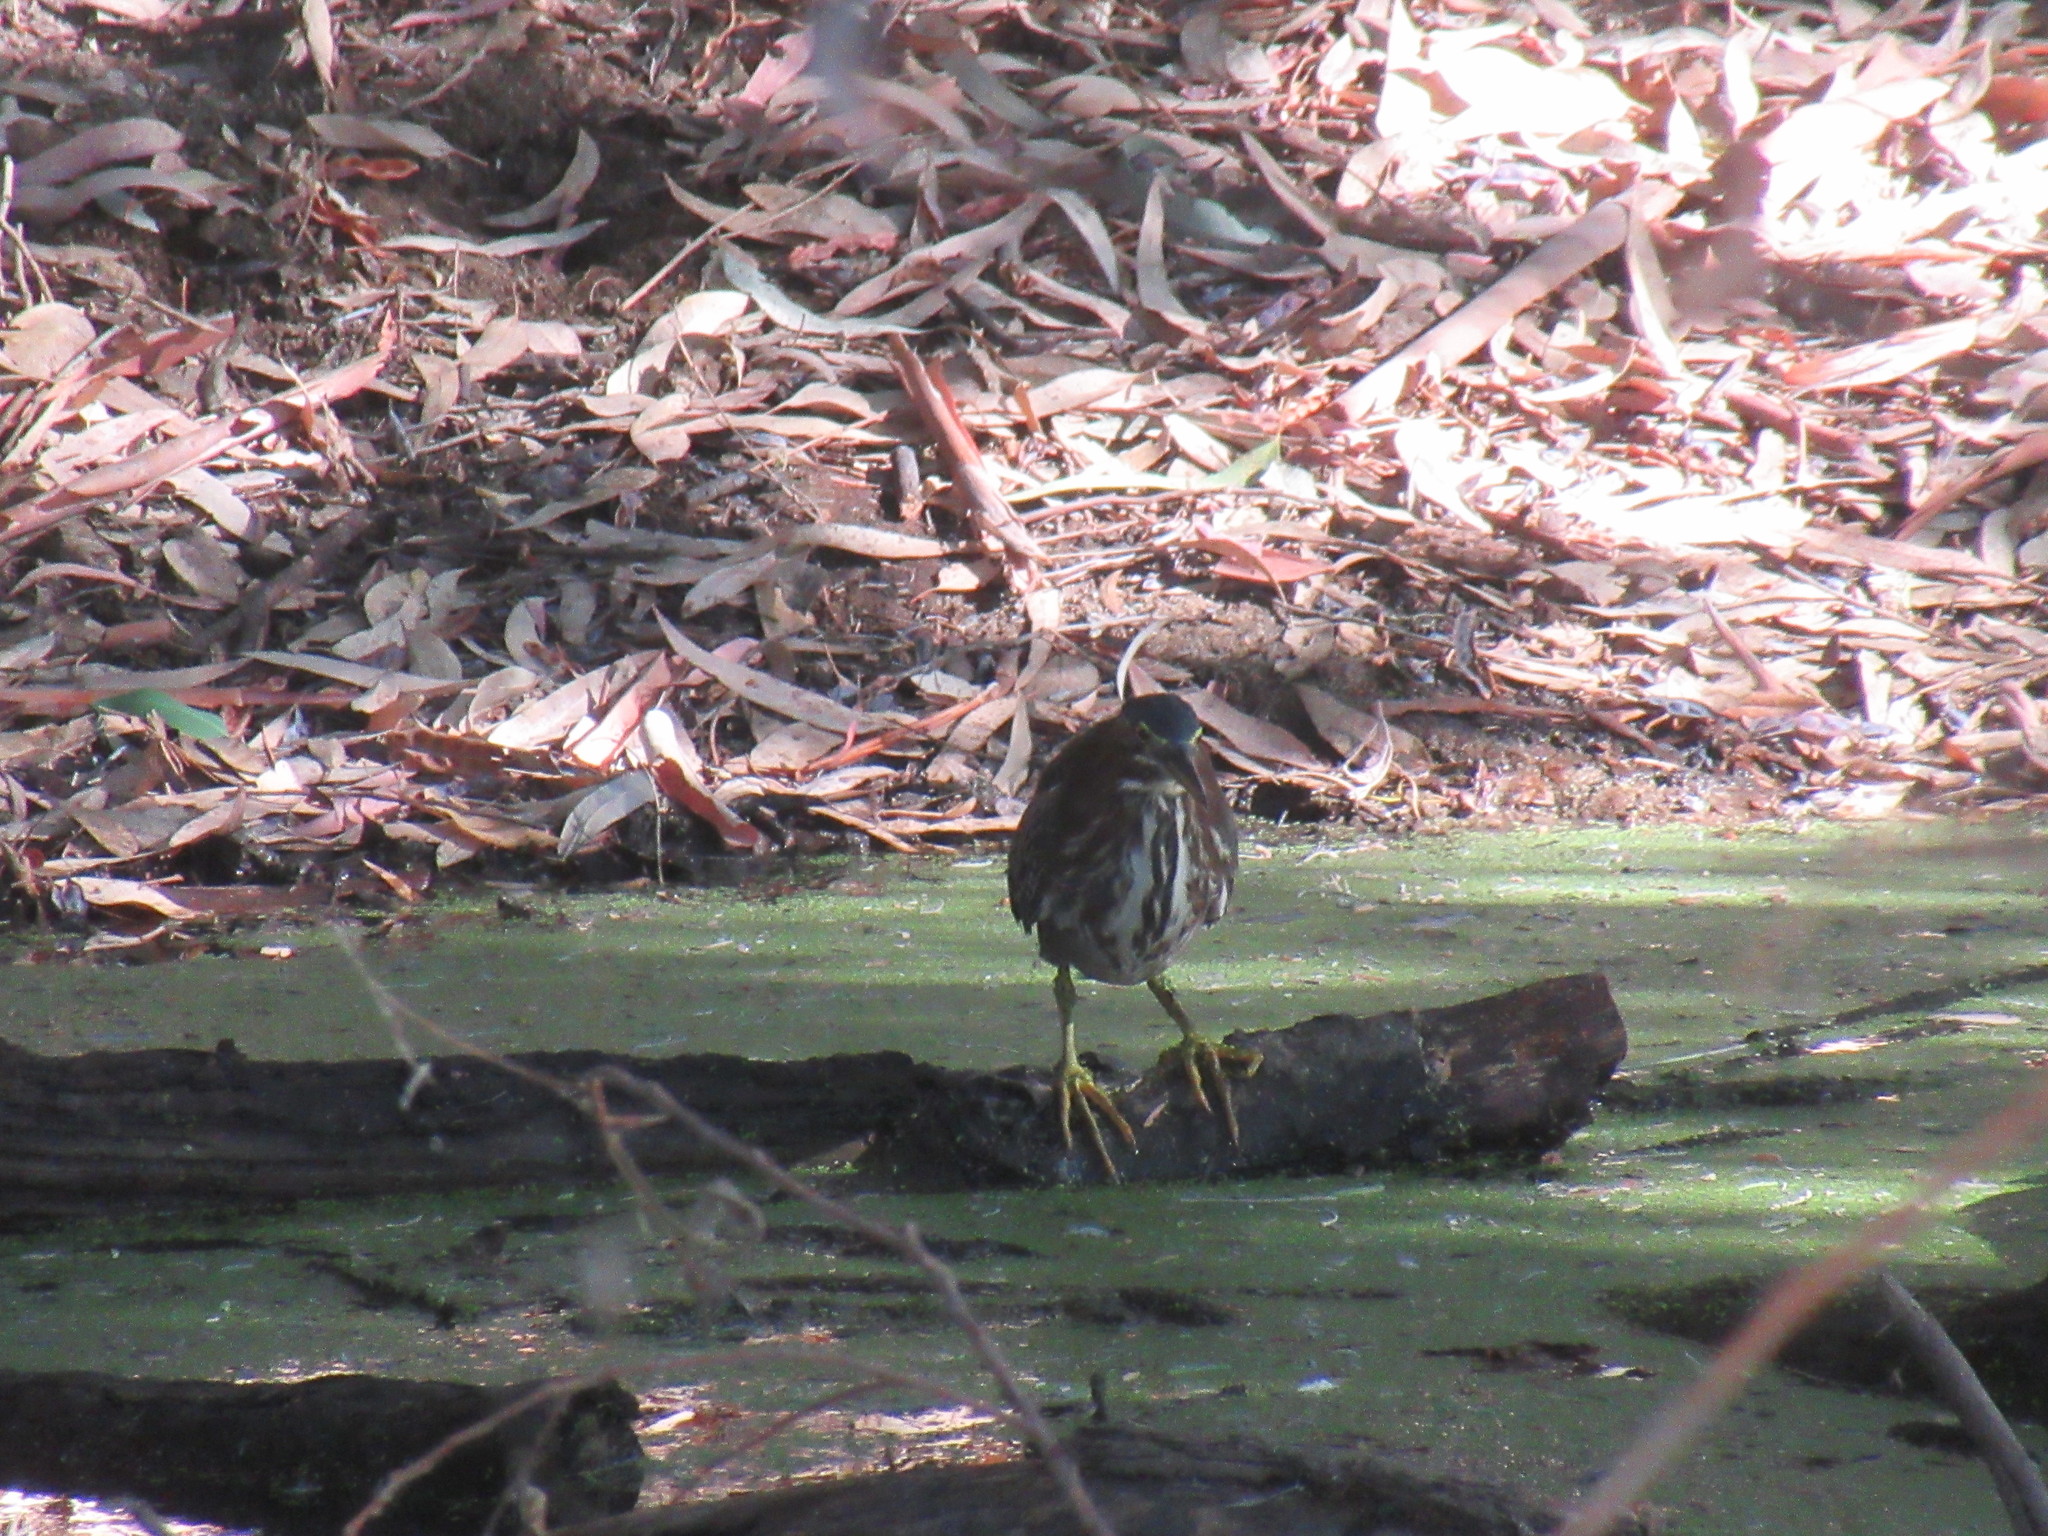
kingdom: Animalia
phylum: Chordata
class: Aves
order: Pelecaniformes
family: Ardeidae
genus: Butorides
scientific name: Butorides virescens
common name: Green heron
